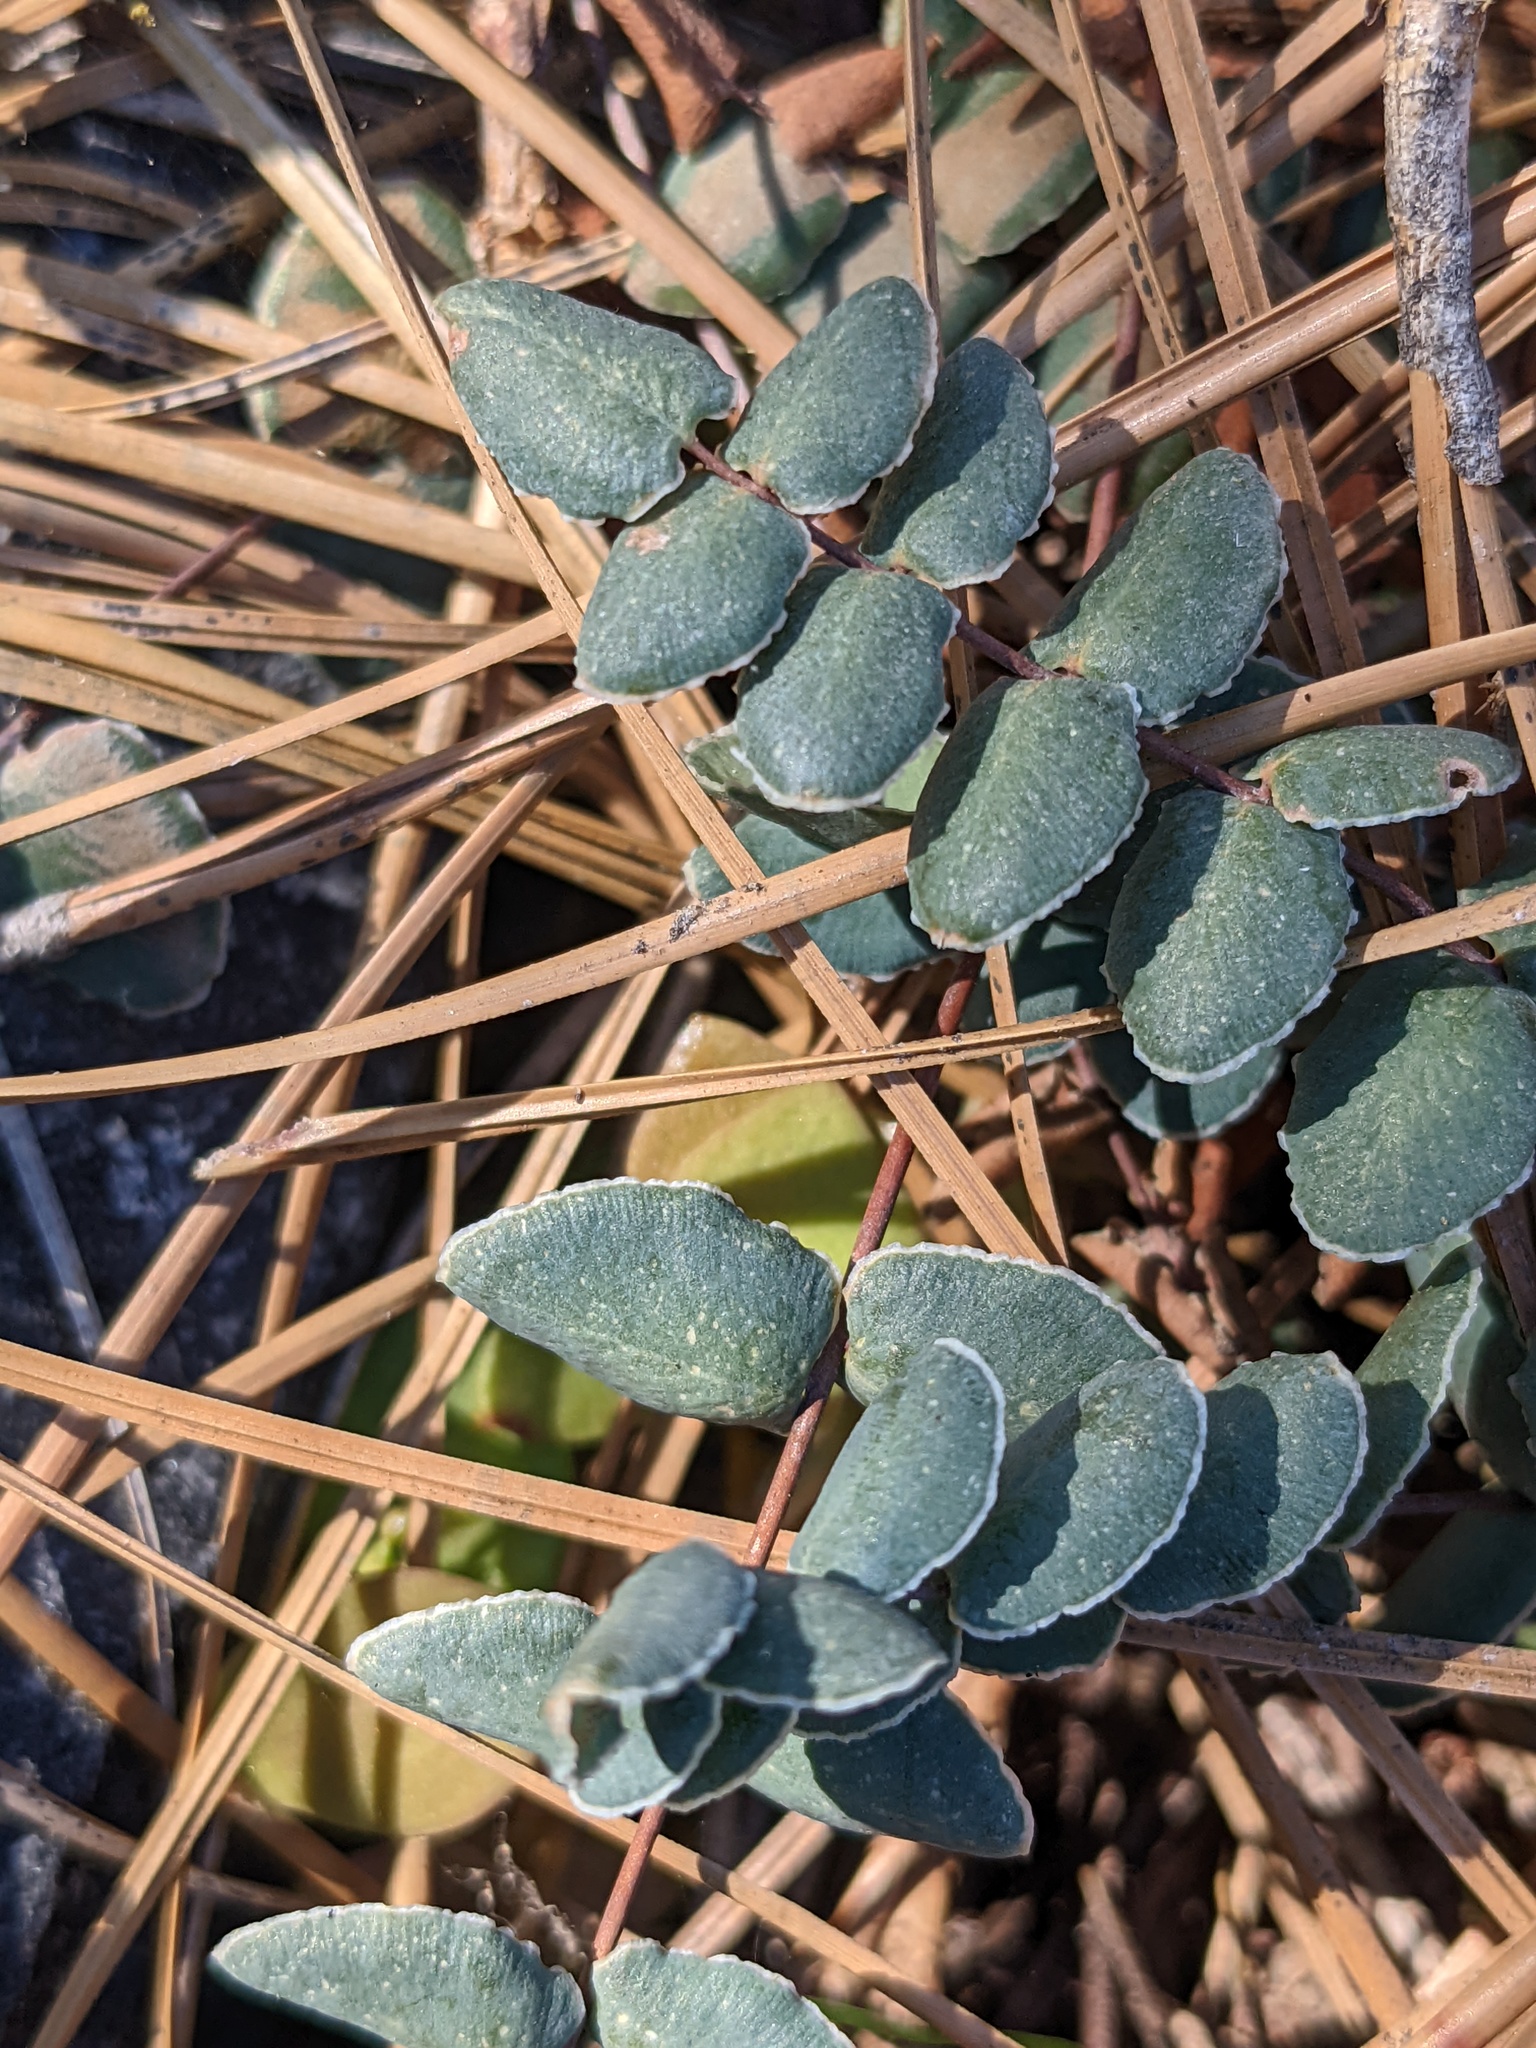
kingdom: Plantae
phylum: Tracheophyta
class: Polypodiopsida
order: Polypodiales
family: Pteridaceae
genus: Pellaea
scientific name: Pellaea bridgesii
